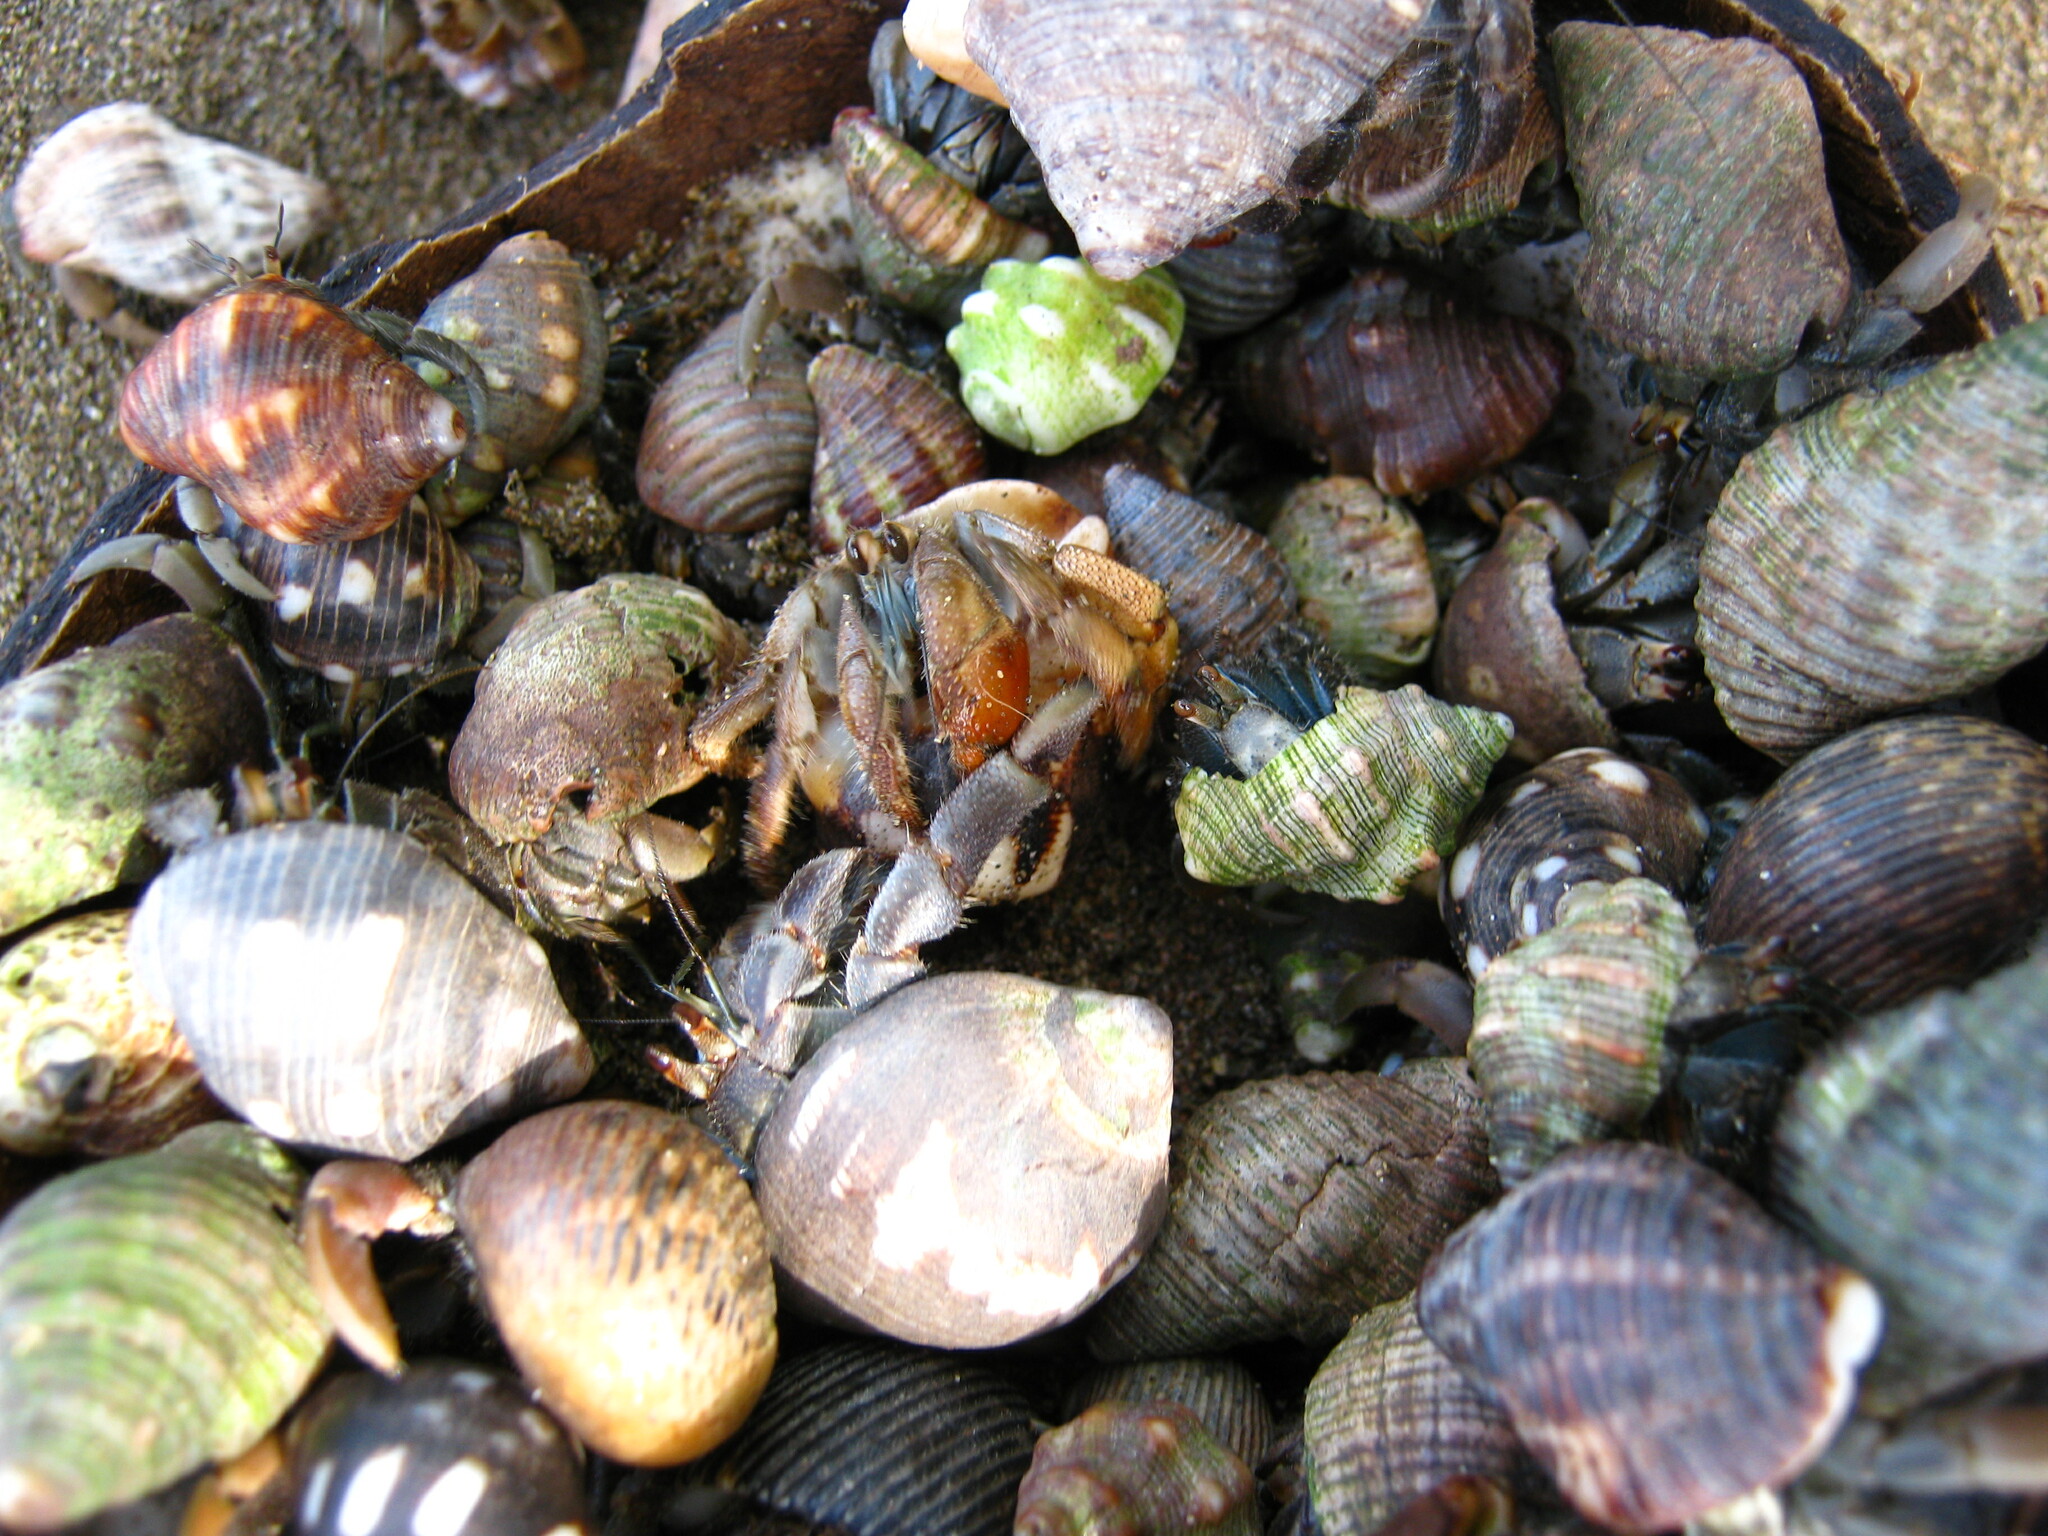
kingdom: Animalia
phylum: Arthropoda
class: Malacostraca
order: Decapoda
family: Coenobitidae
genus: Coenobita
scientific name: Coenobita compressus
